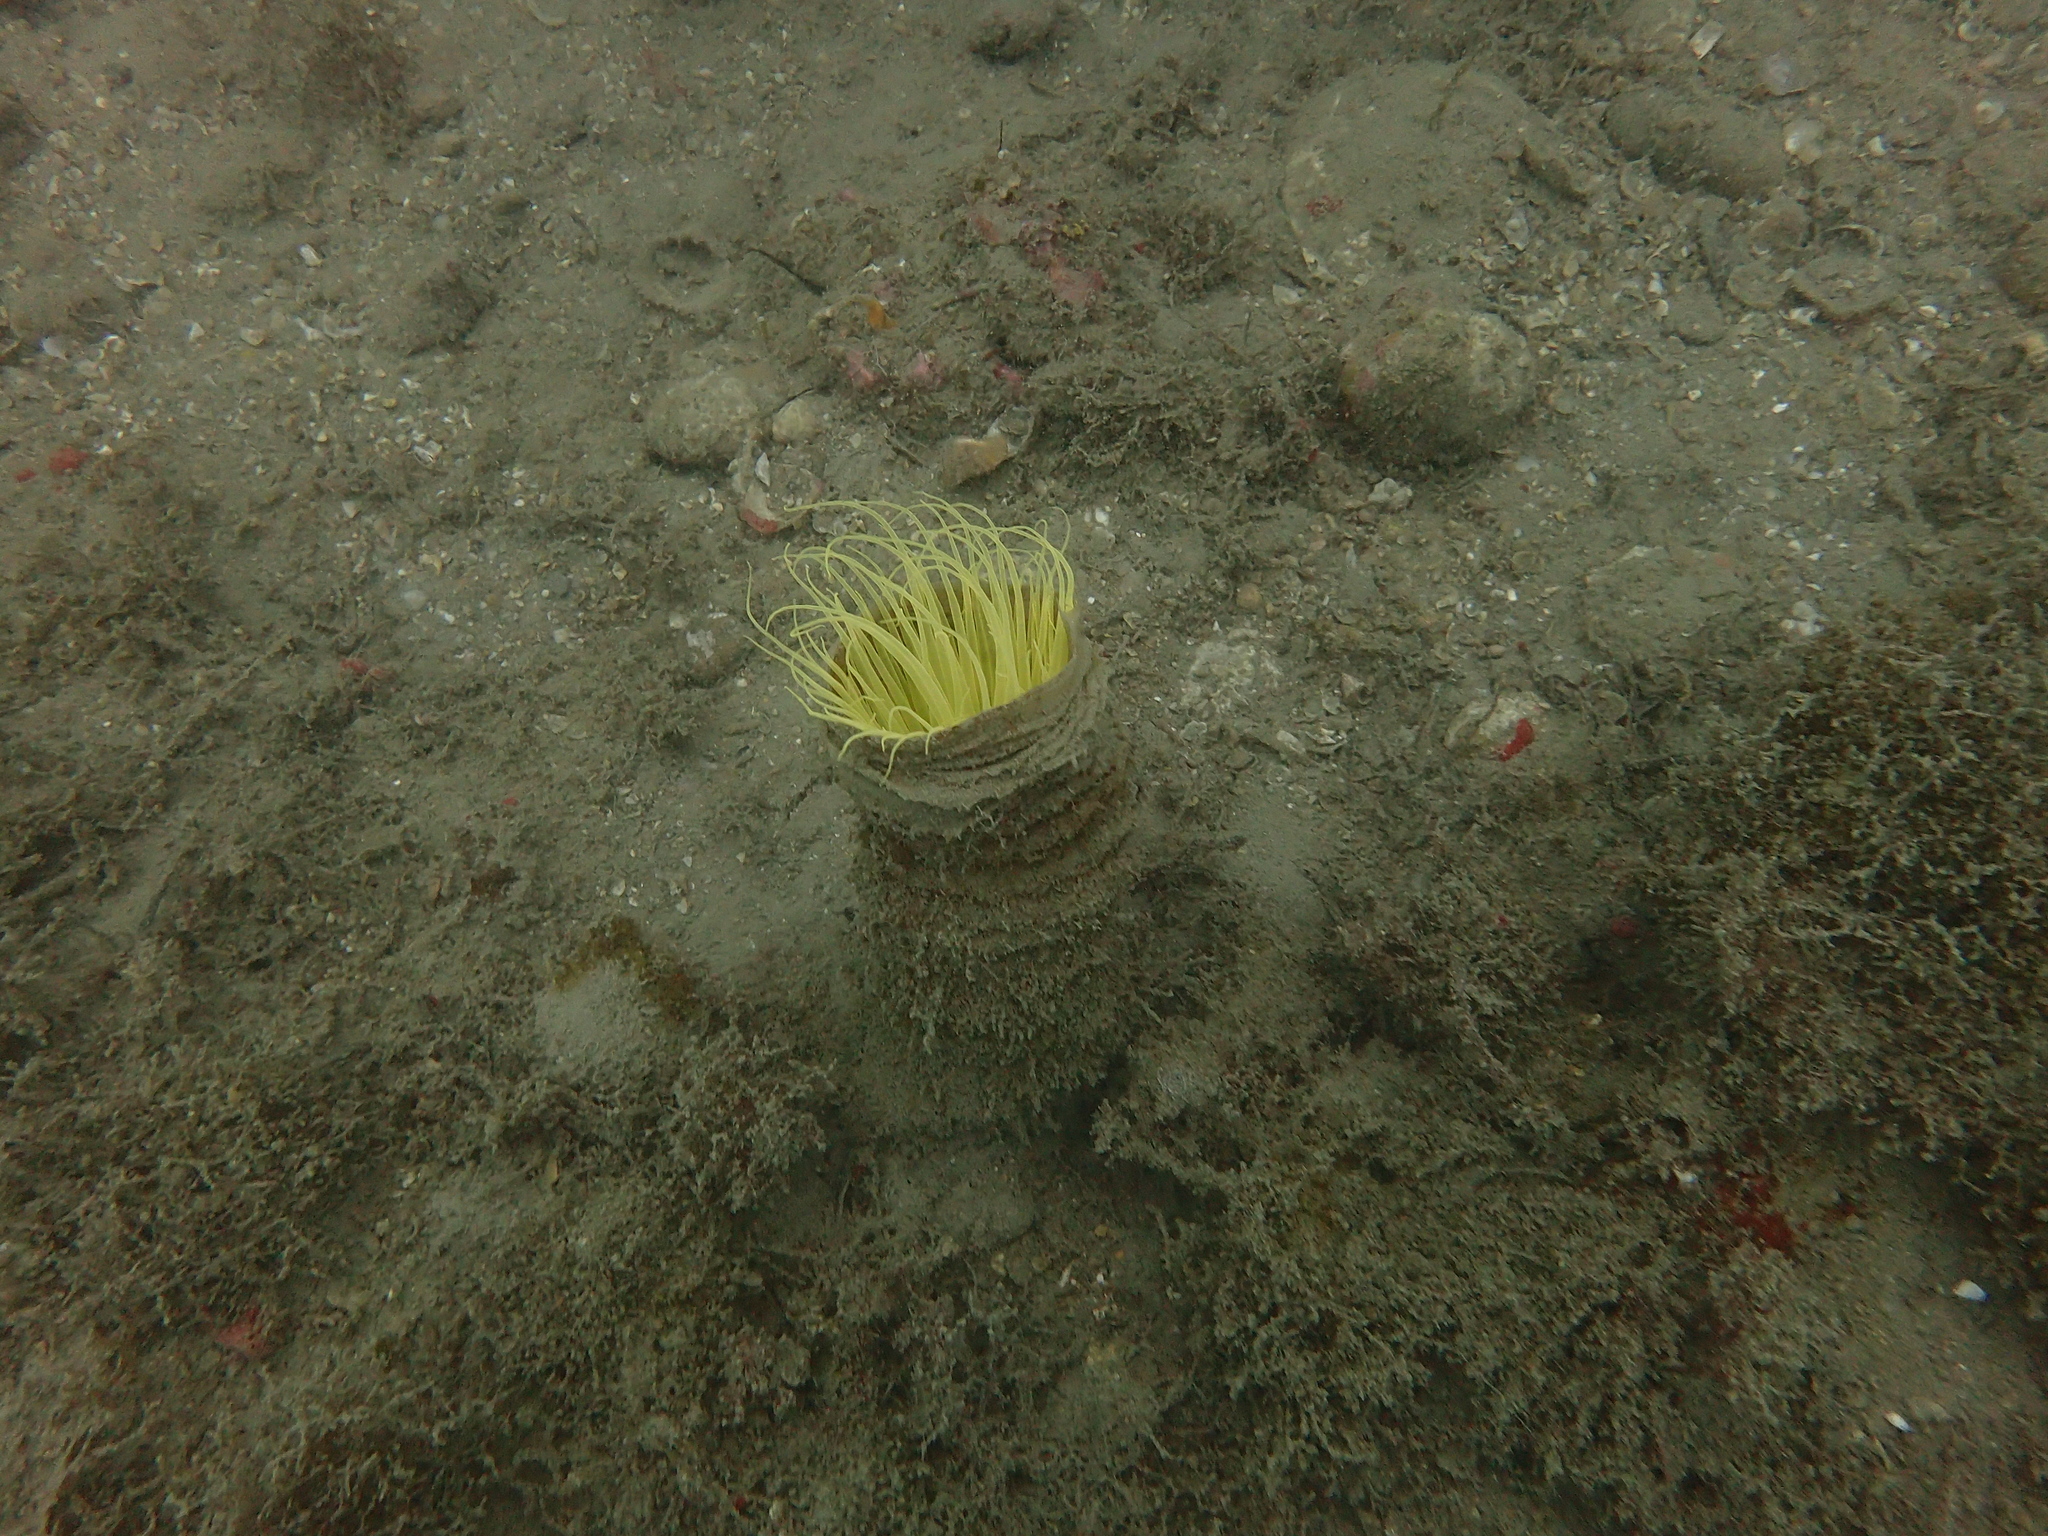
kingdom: Animalia
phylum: Cnidaria
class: Anthozoa
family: Cerianthidae
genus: Cerianthus
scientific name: Cerianthus membranaceus
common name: Cylinder anemone
